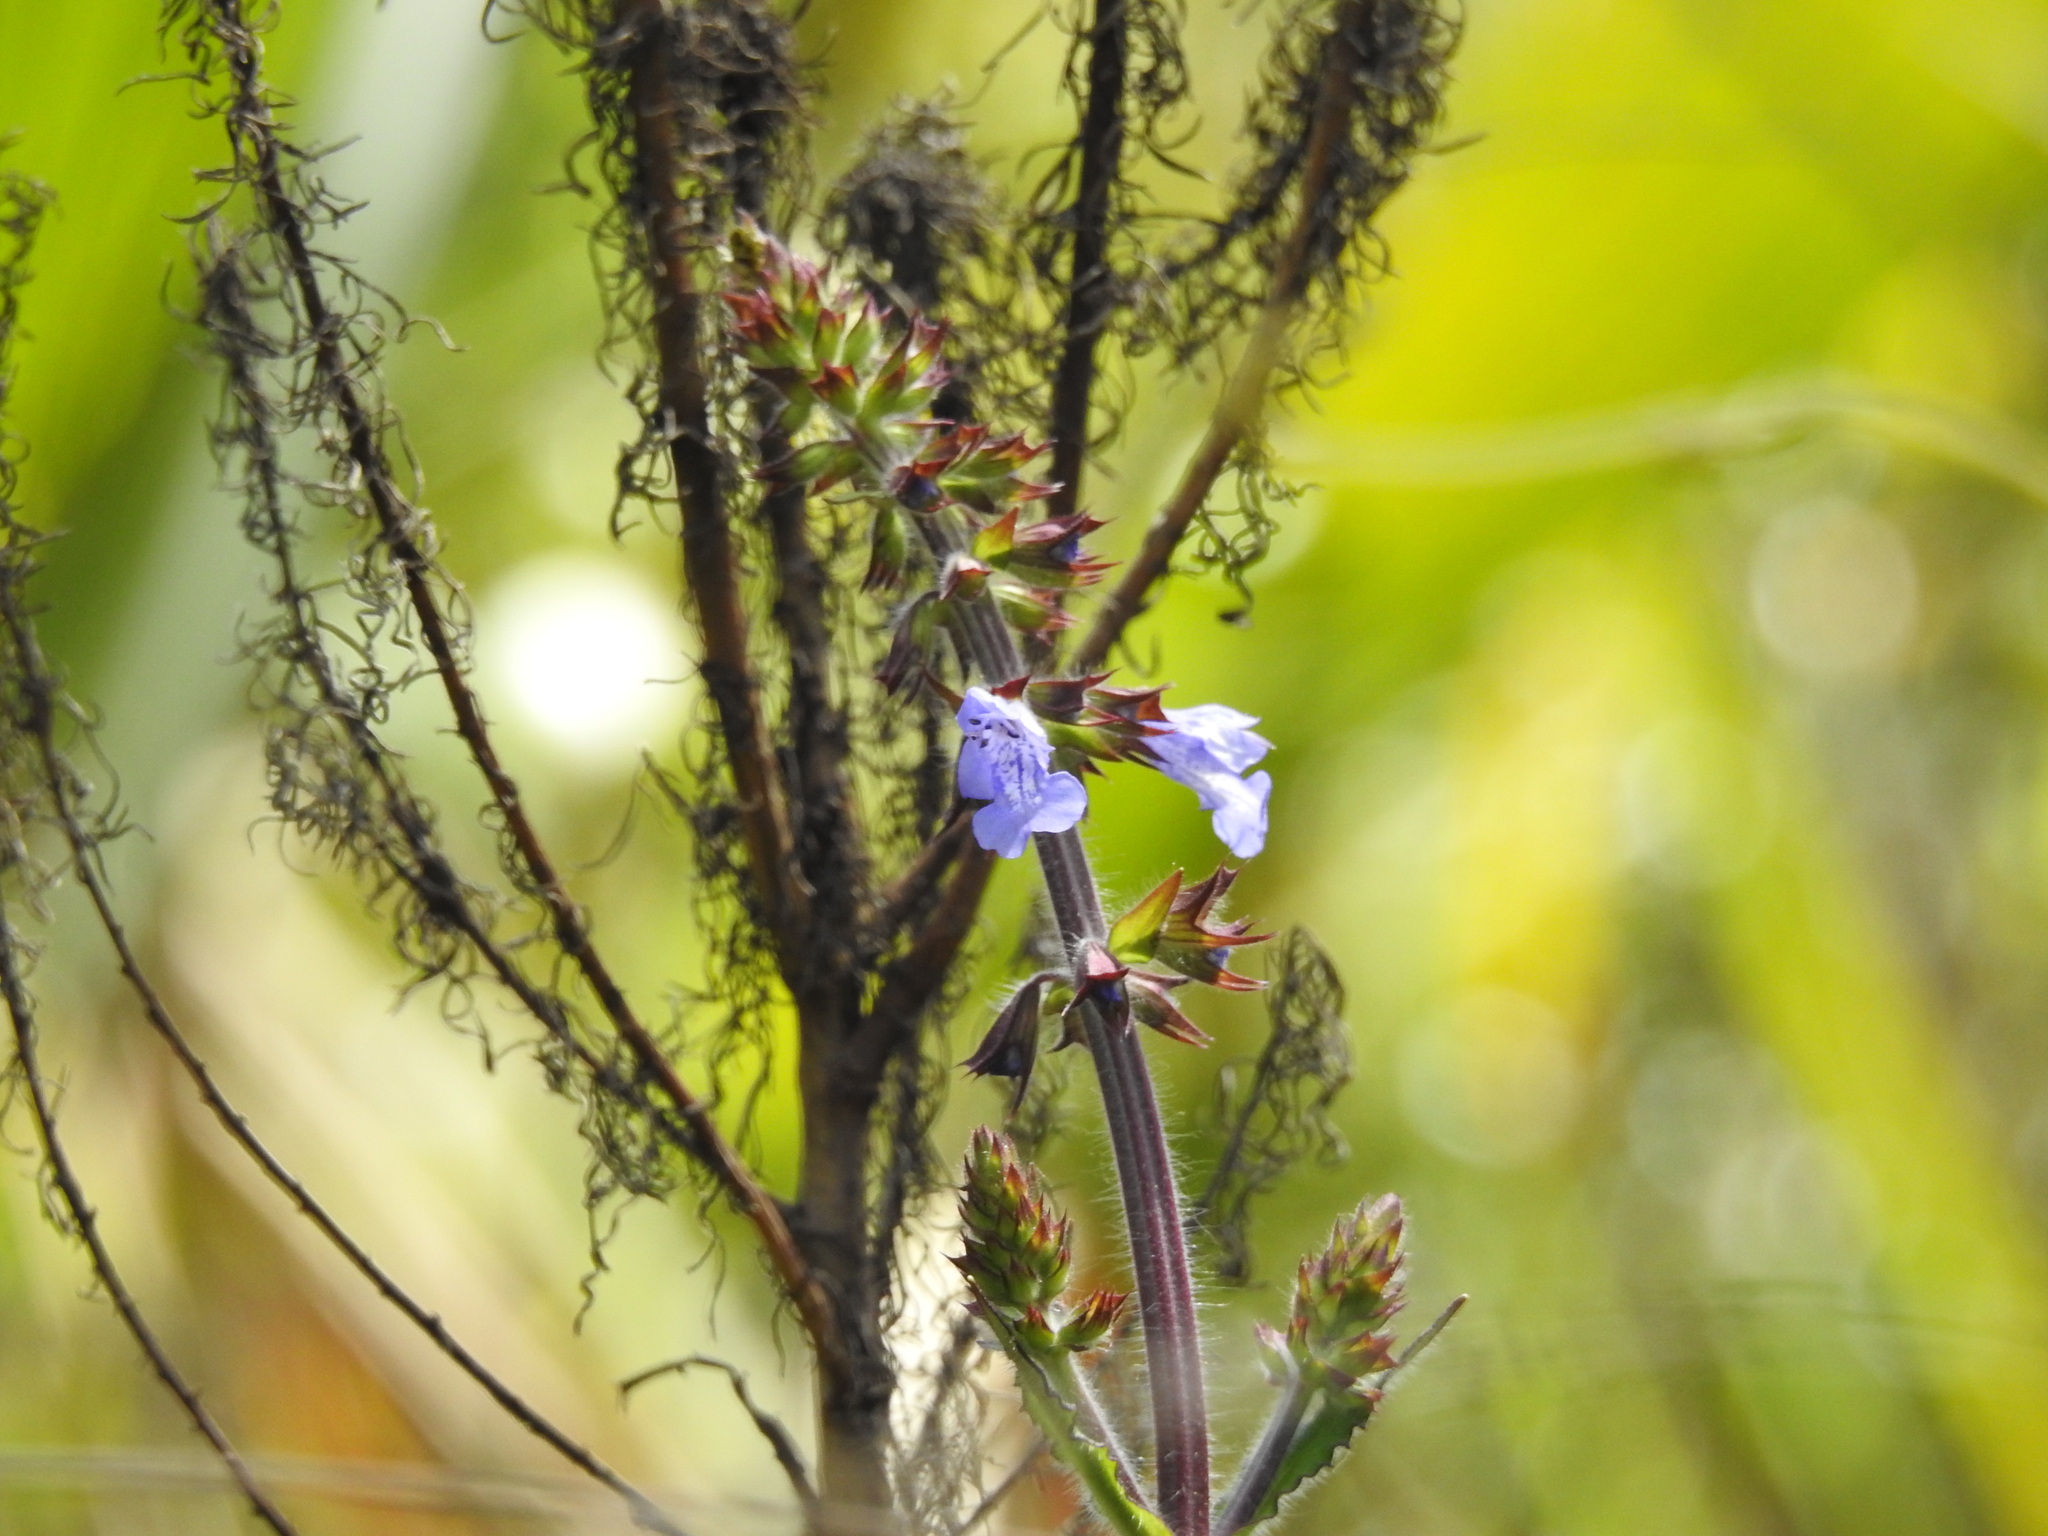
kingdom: Plantae
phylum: Tracheophyta
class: Magnoliopsida
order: Lamiales
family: Lamiaceae
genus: Salvia
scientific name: Salvia lyrata
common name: Cancerweed
